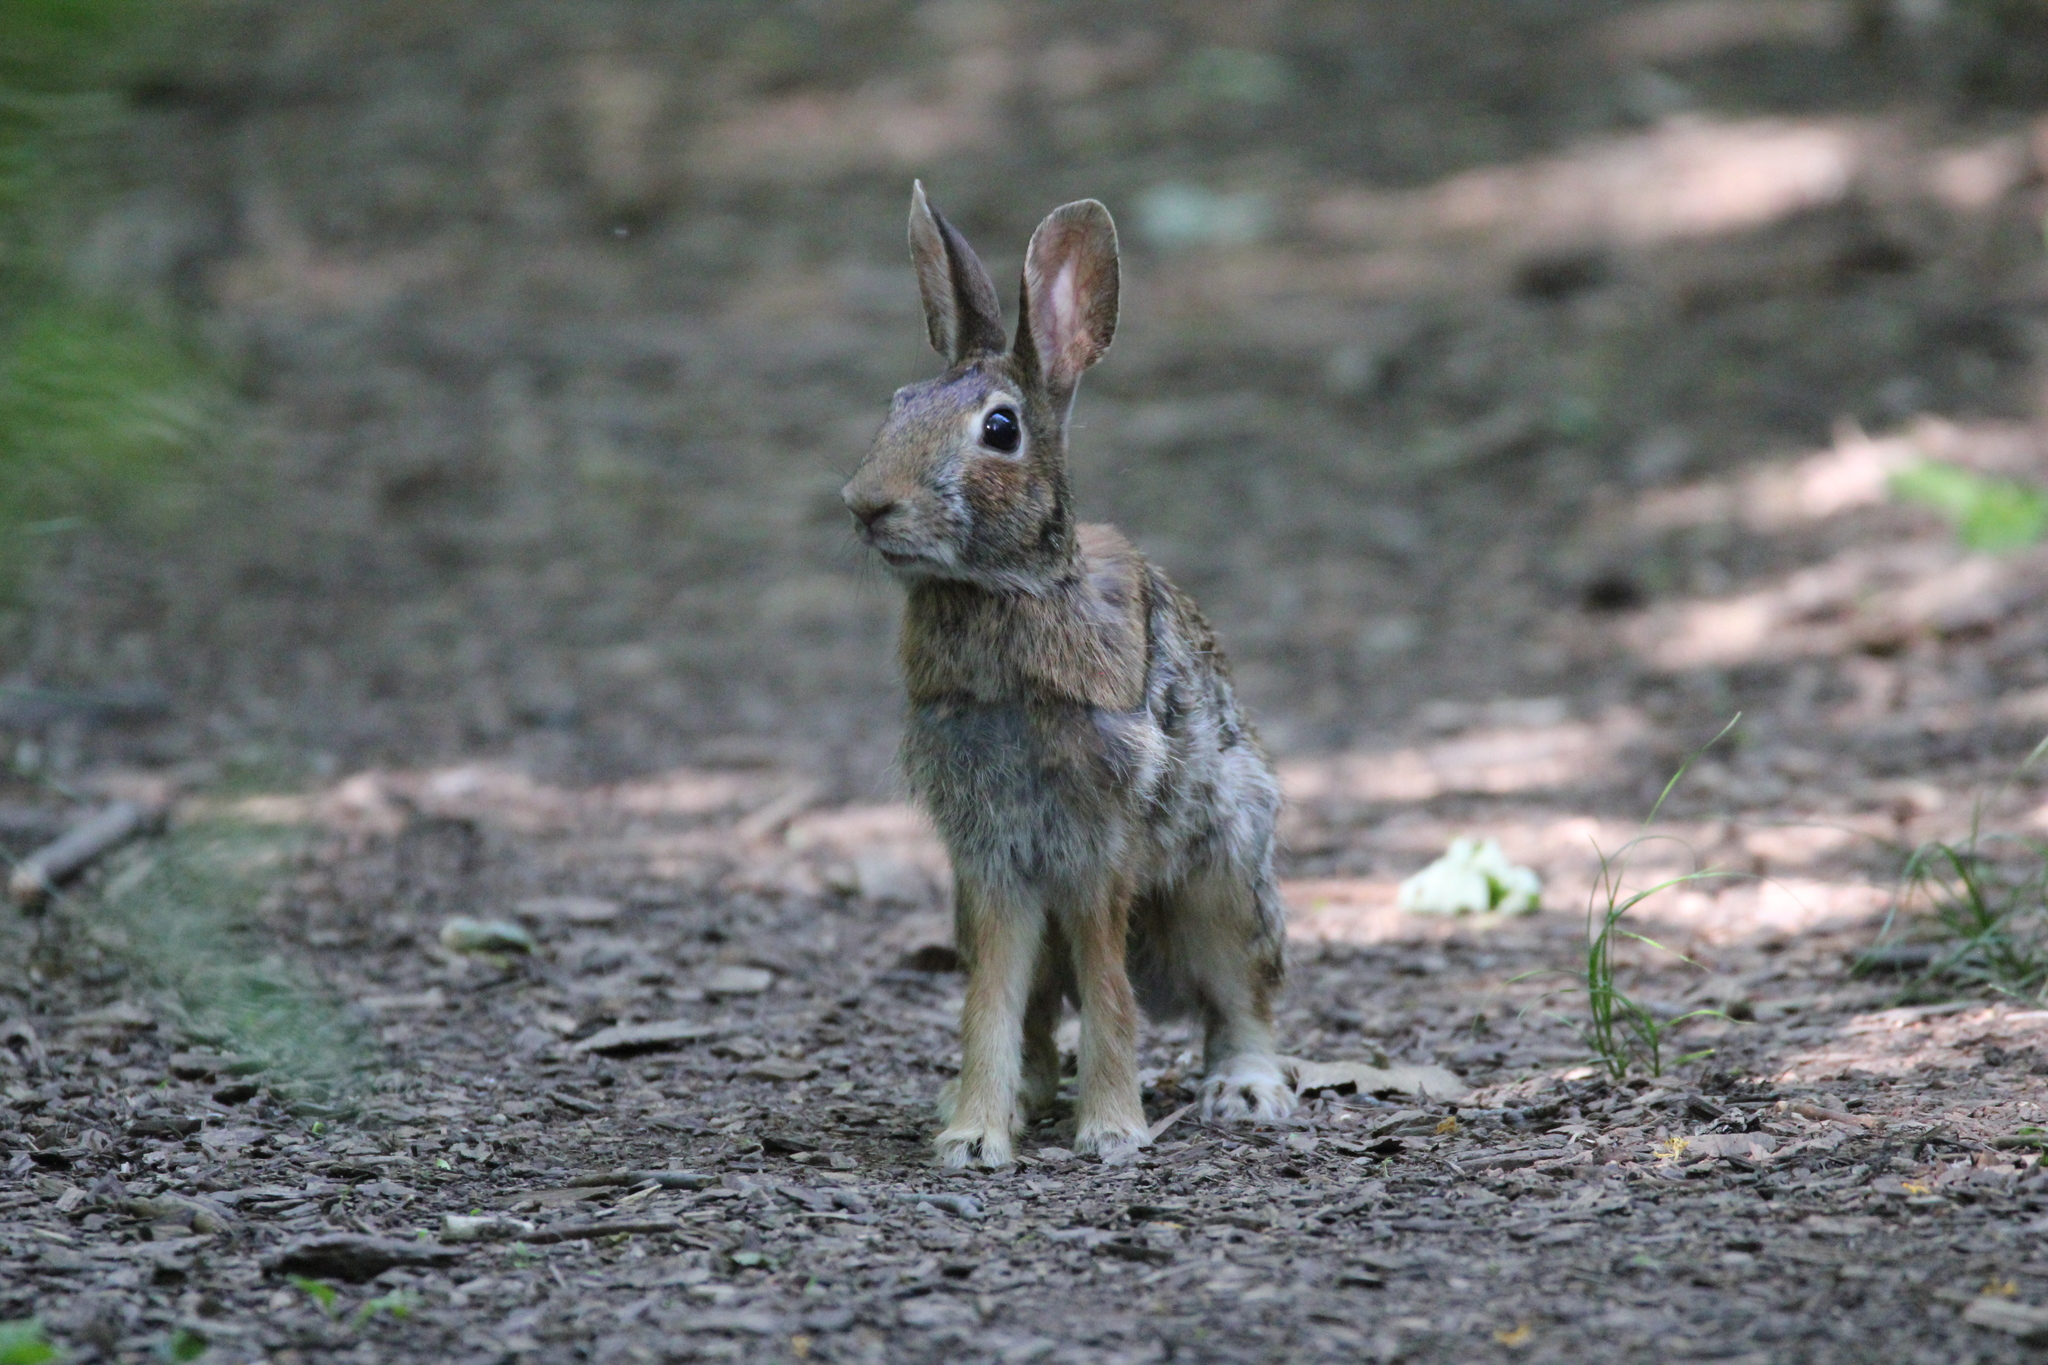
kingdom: Animalia
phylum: Chordata
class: Mammalia
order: Lagomorpha
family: Leporidae
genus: Sylvilagus
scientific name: Sylvilagus floridanus
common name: Eastern cottontail
